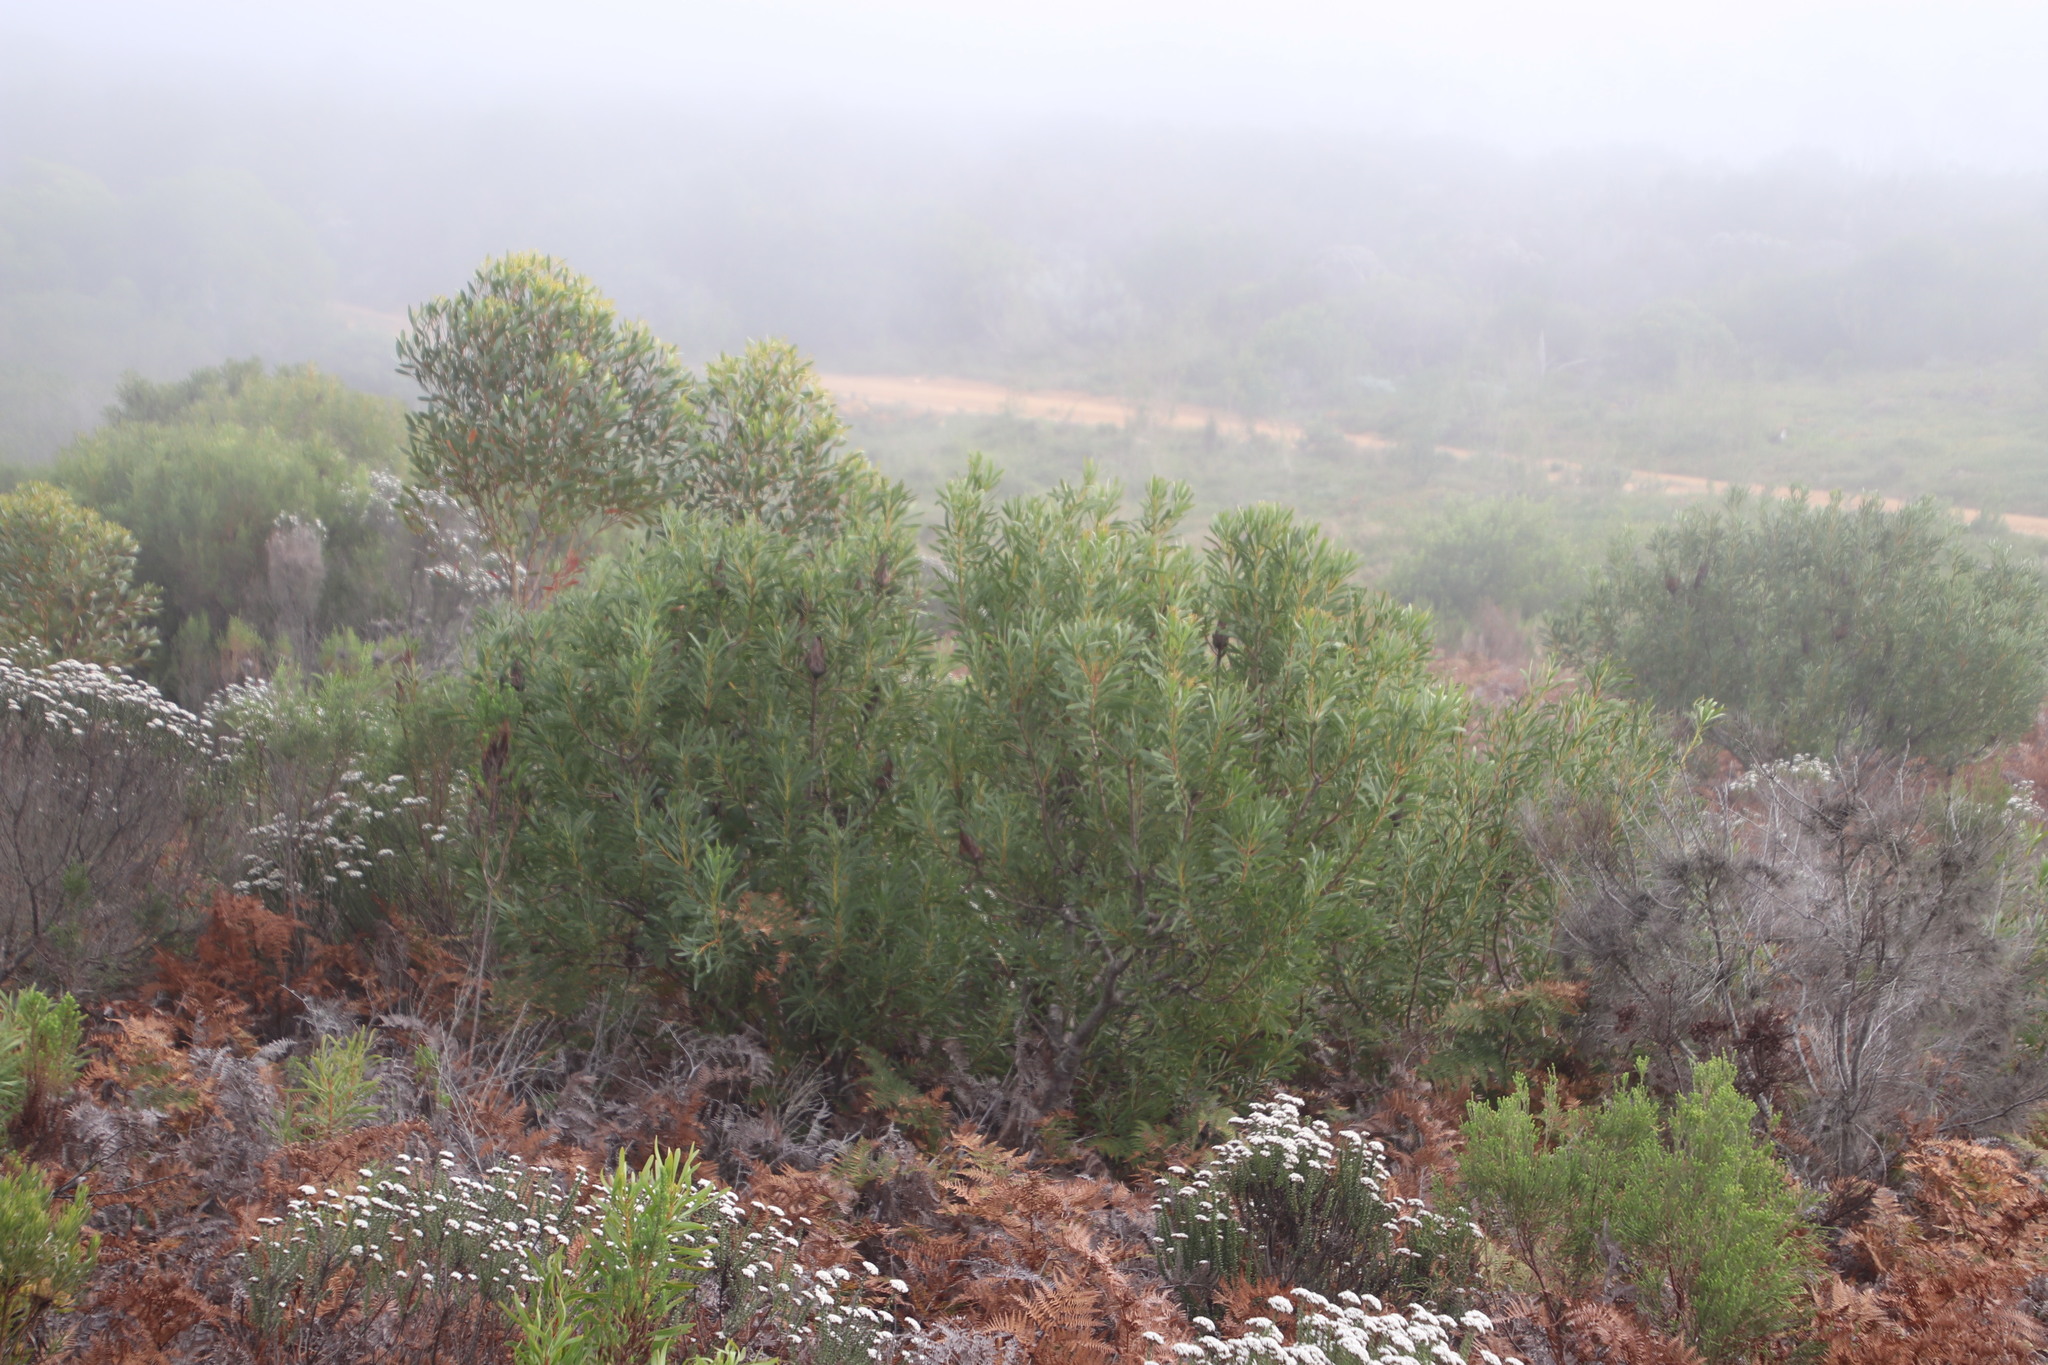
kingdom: Plantae
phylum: Tracheophyta
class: Magnoliopsida
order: Proteales
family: Proteaceae
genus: Protea
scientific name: Protea repens
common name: Sugarbush
